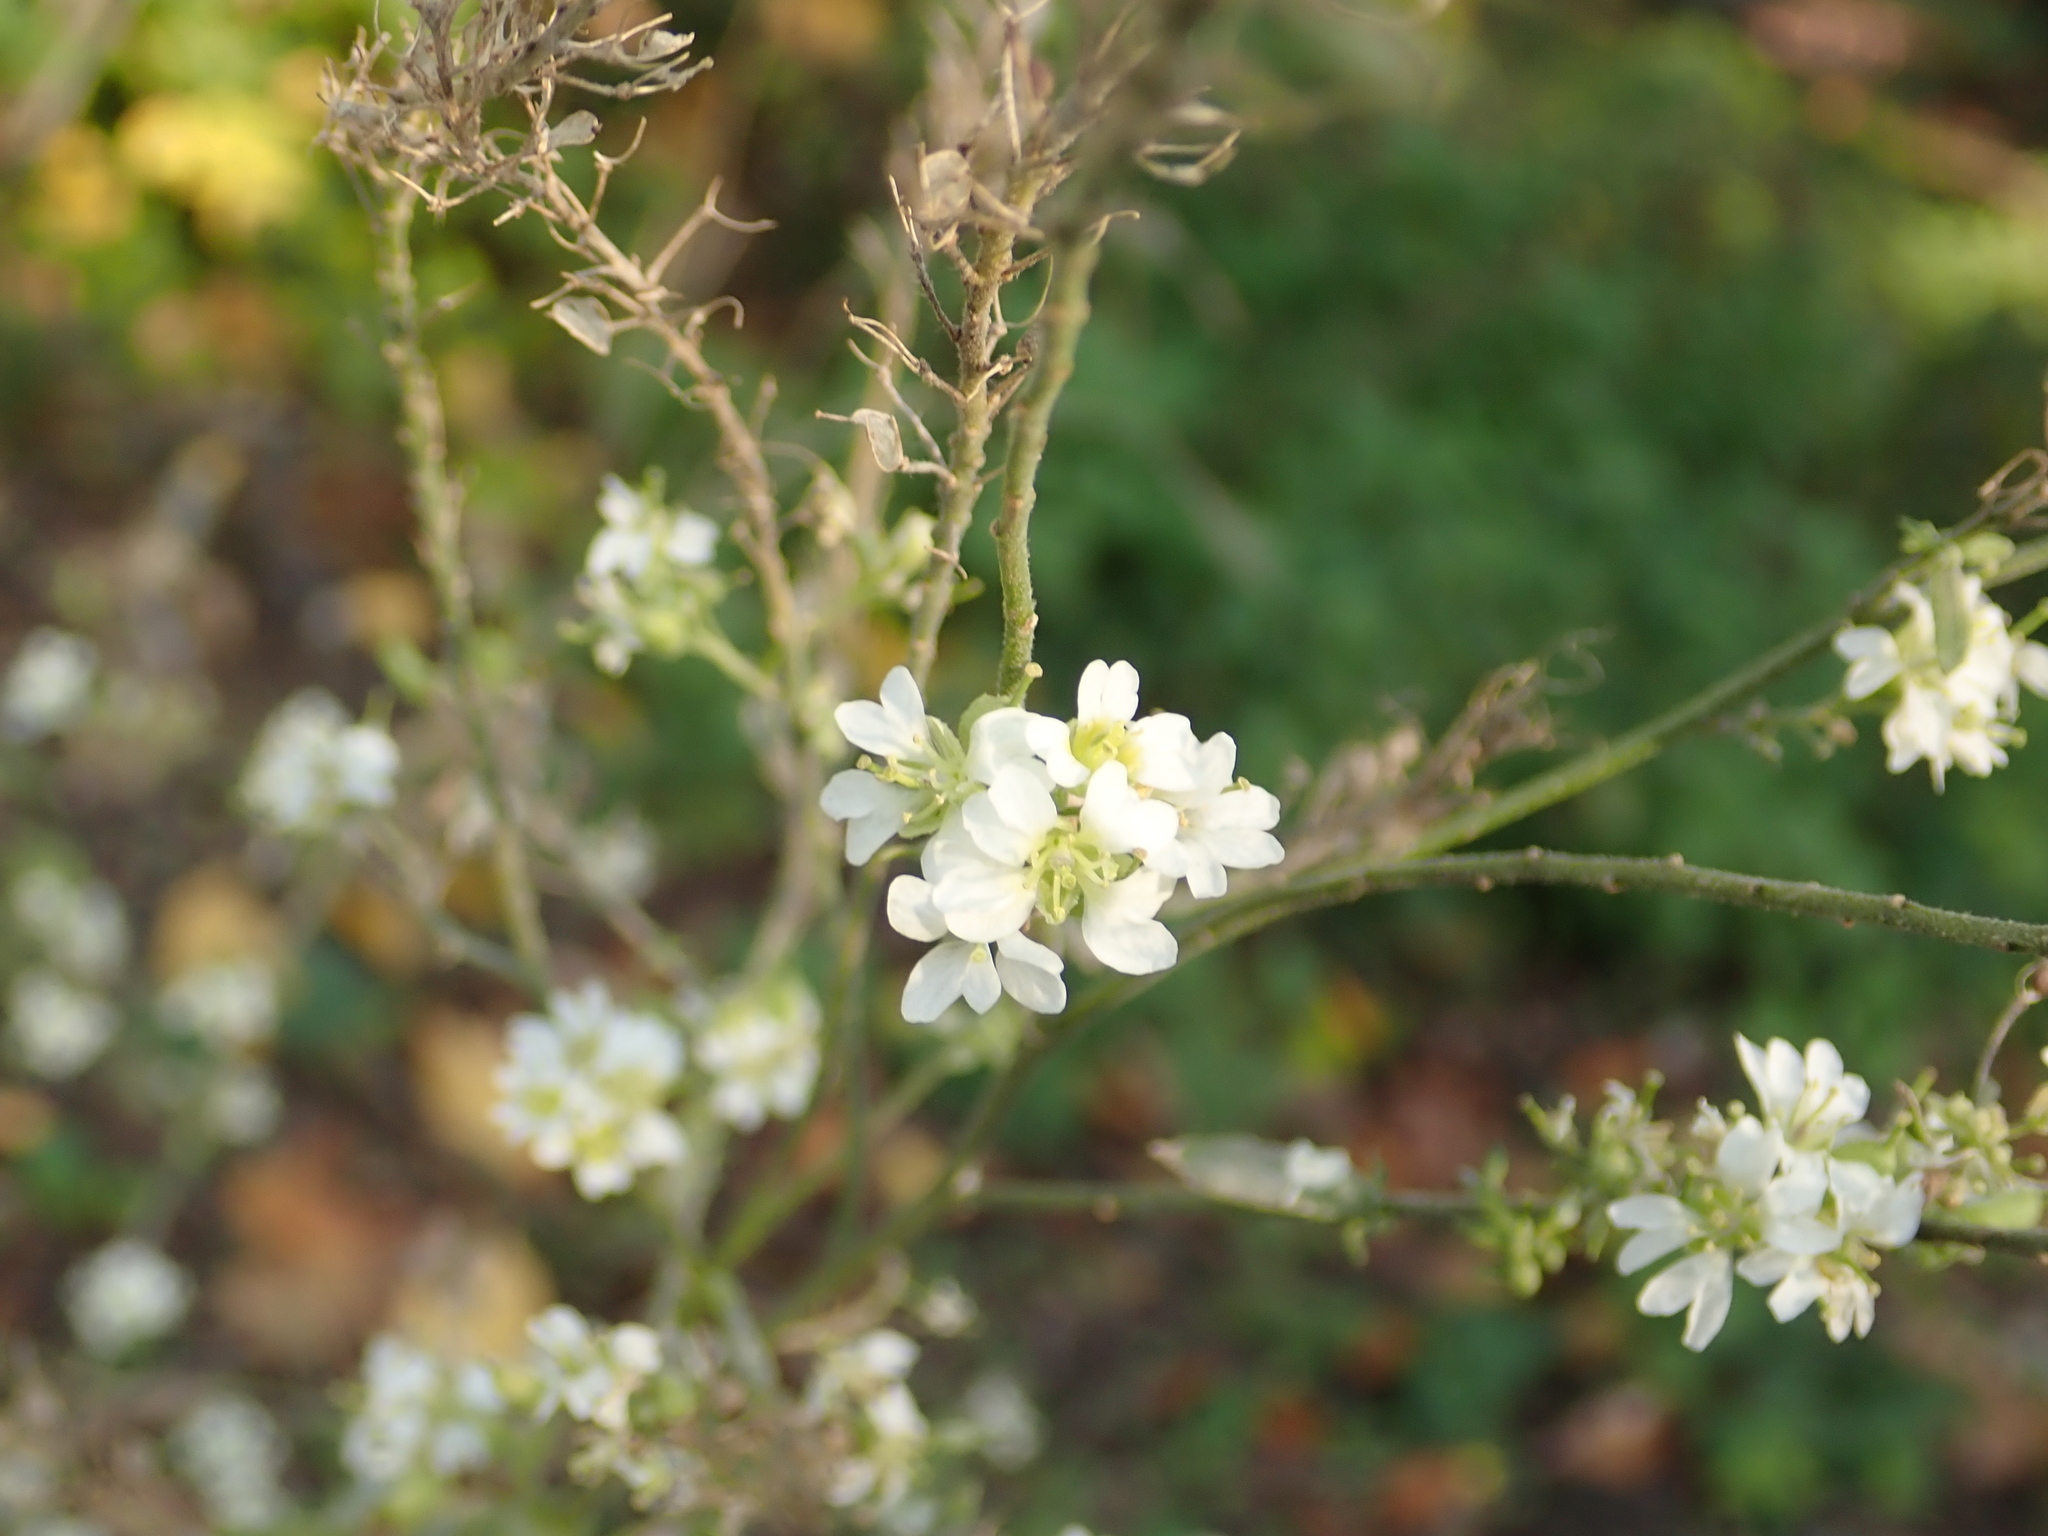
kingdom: Plantae
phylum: Tracheophyta
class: Magnoliopsida
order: Brassicales
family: Brassicaceae
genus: Berteroa
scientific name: Berteroa incana
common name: Hoary alison
